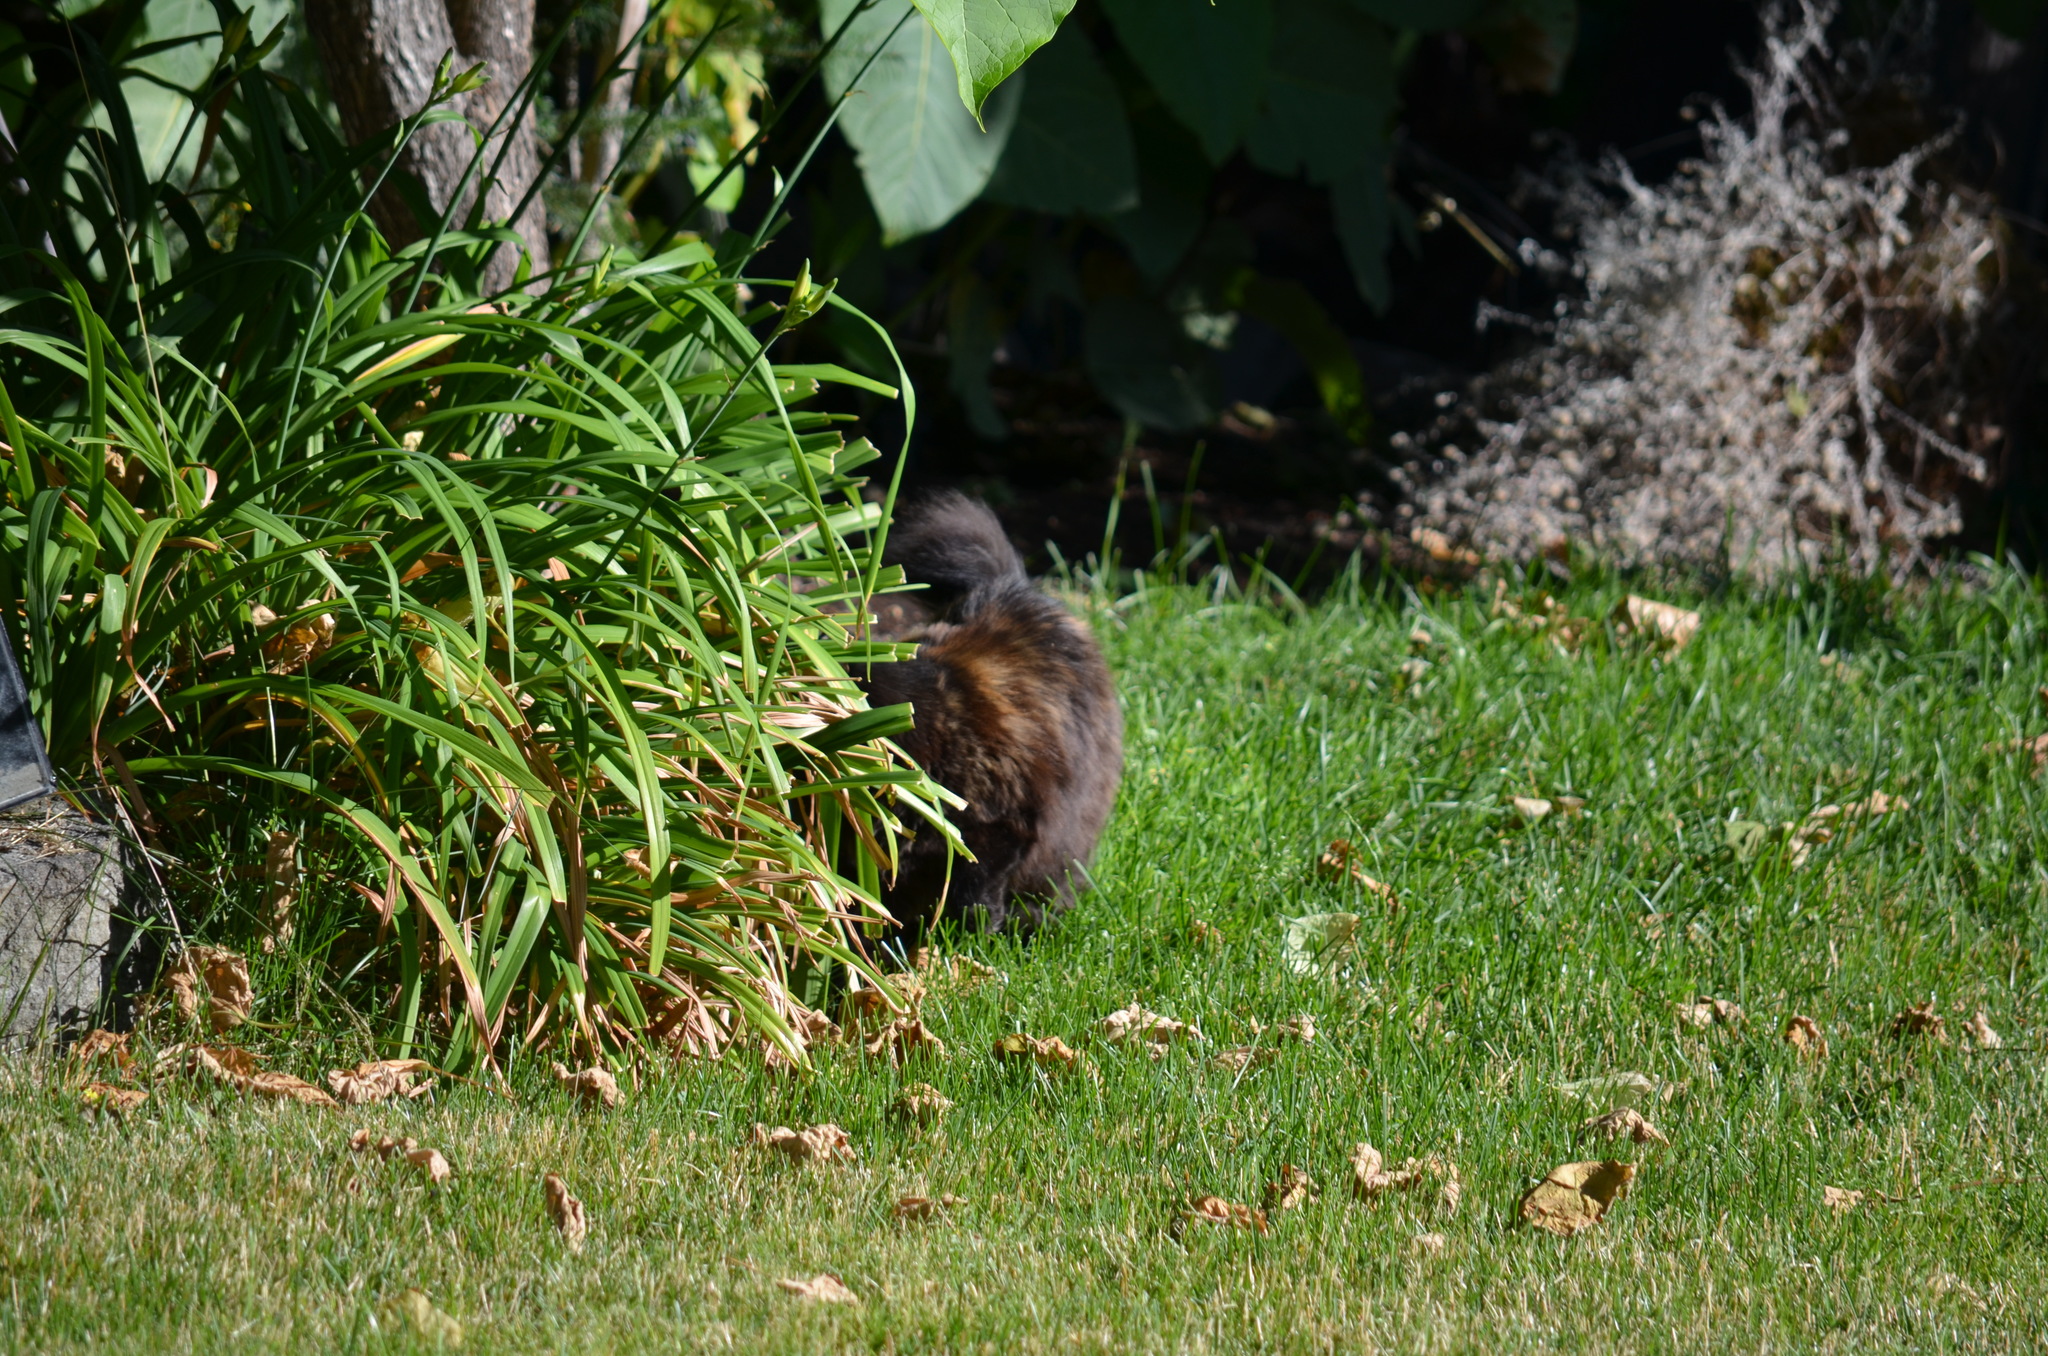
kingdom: Animalia
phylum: Chordata
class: Mammalia
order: Carnivora
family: Felidae
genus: Felis
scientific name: Felis catus
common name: Domestic cat
